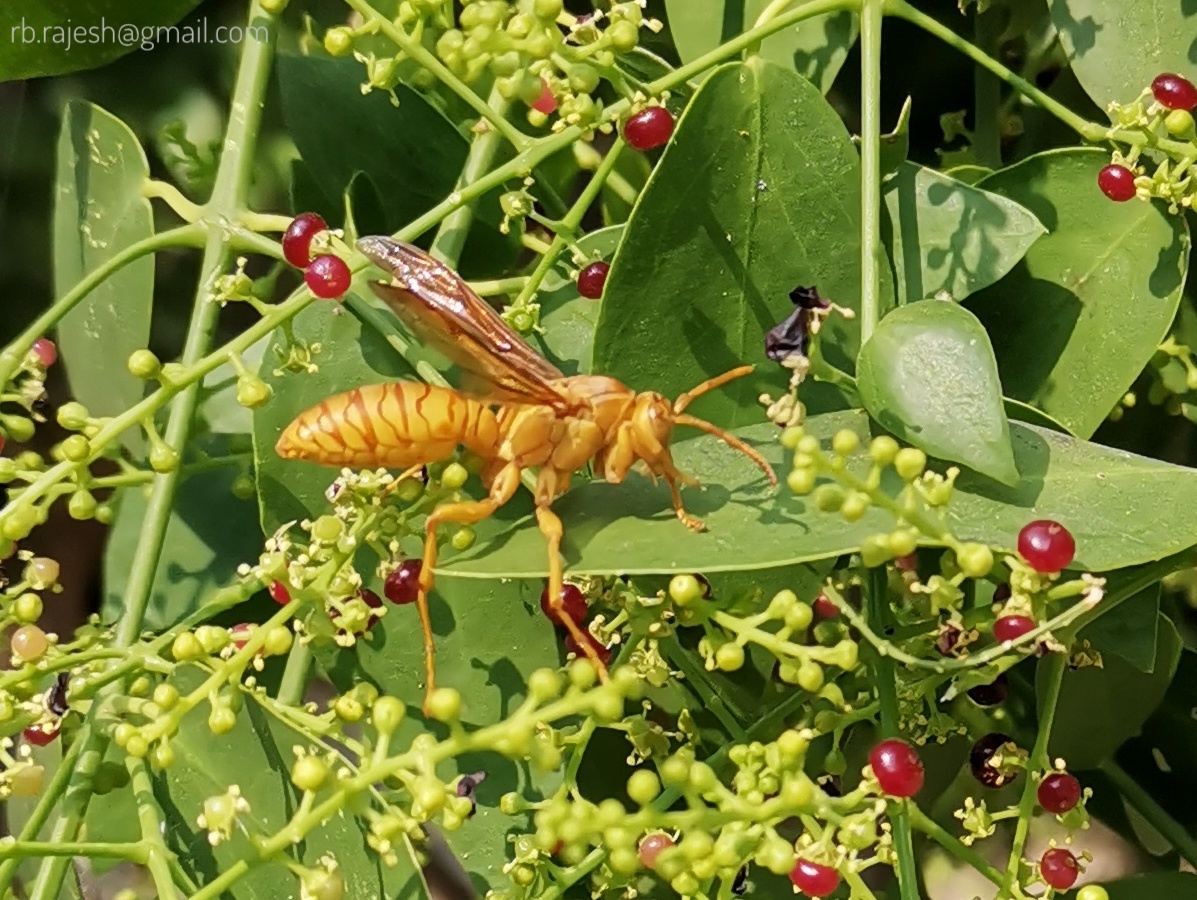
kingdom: Animalia
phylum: Arthropoda
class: Insecta
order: Hymenoptera
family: Eumenidae
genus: Polistes
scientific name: Polistes wattii
